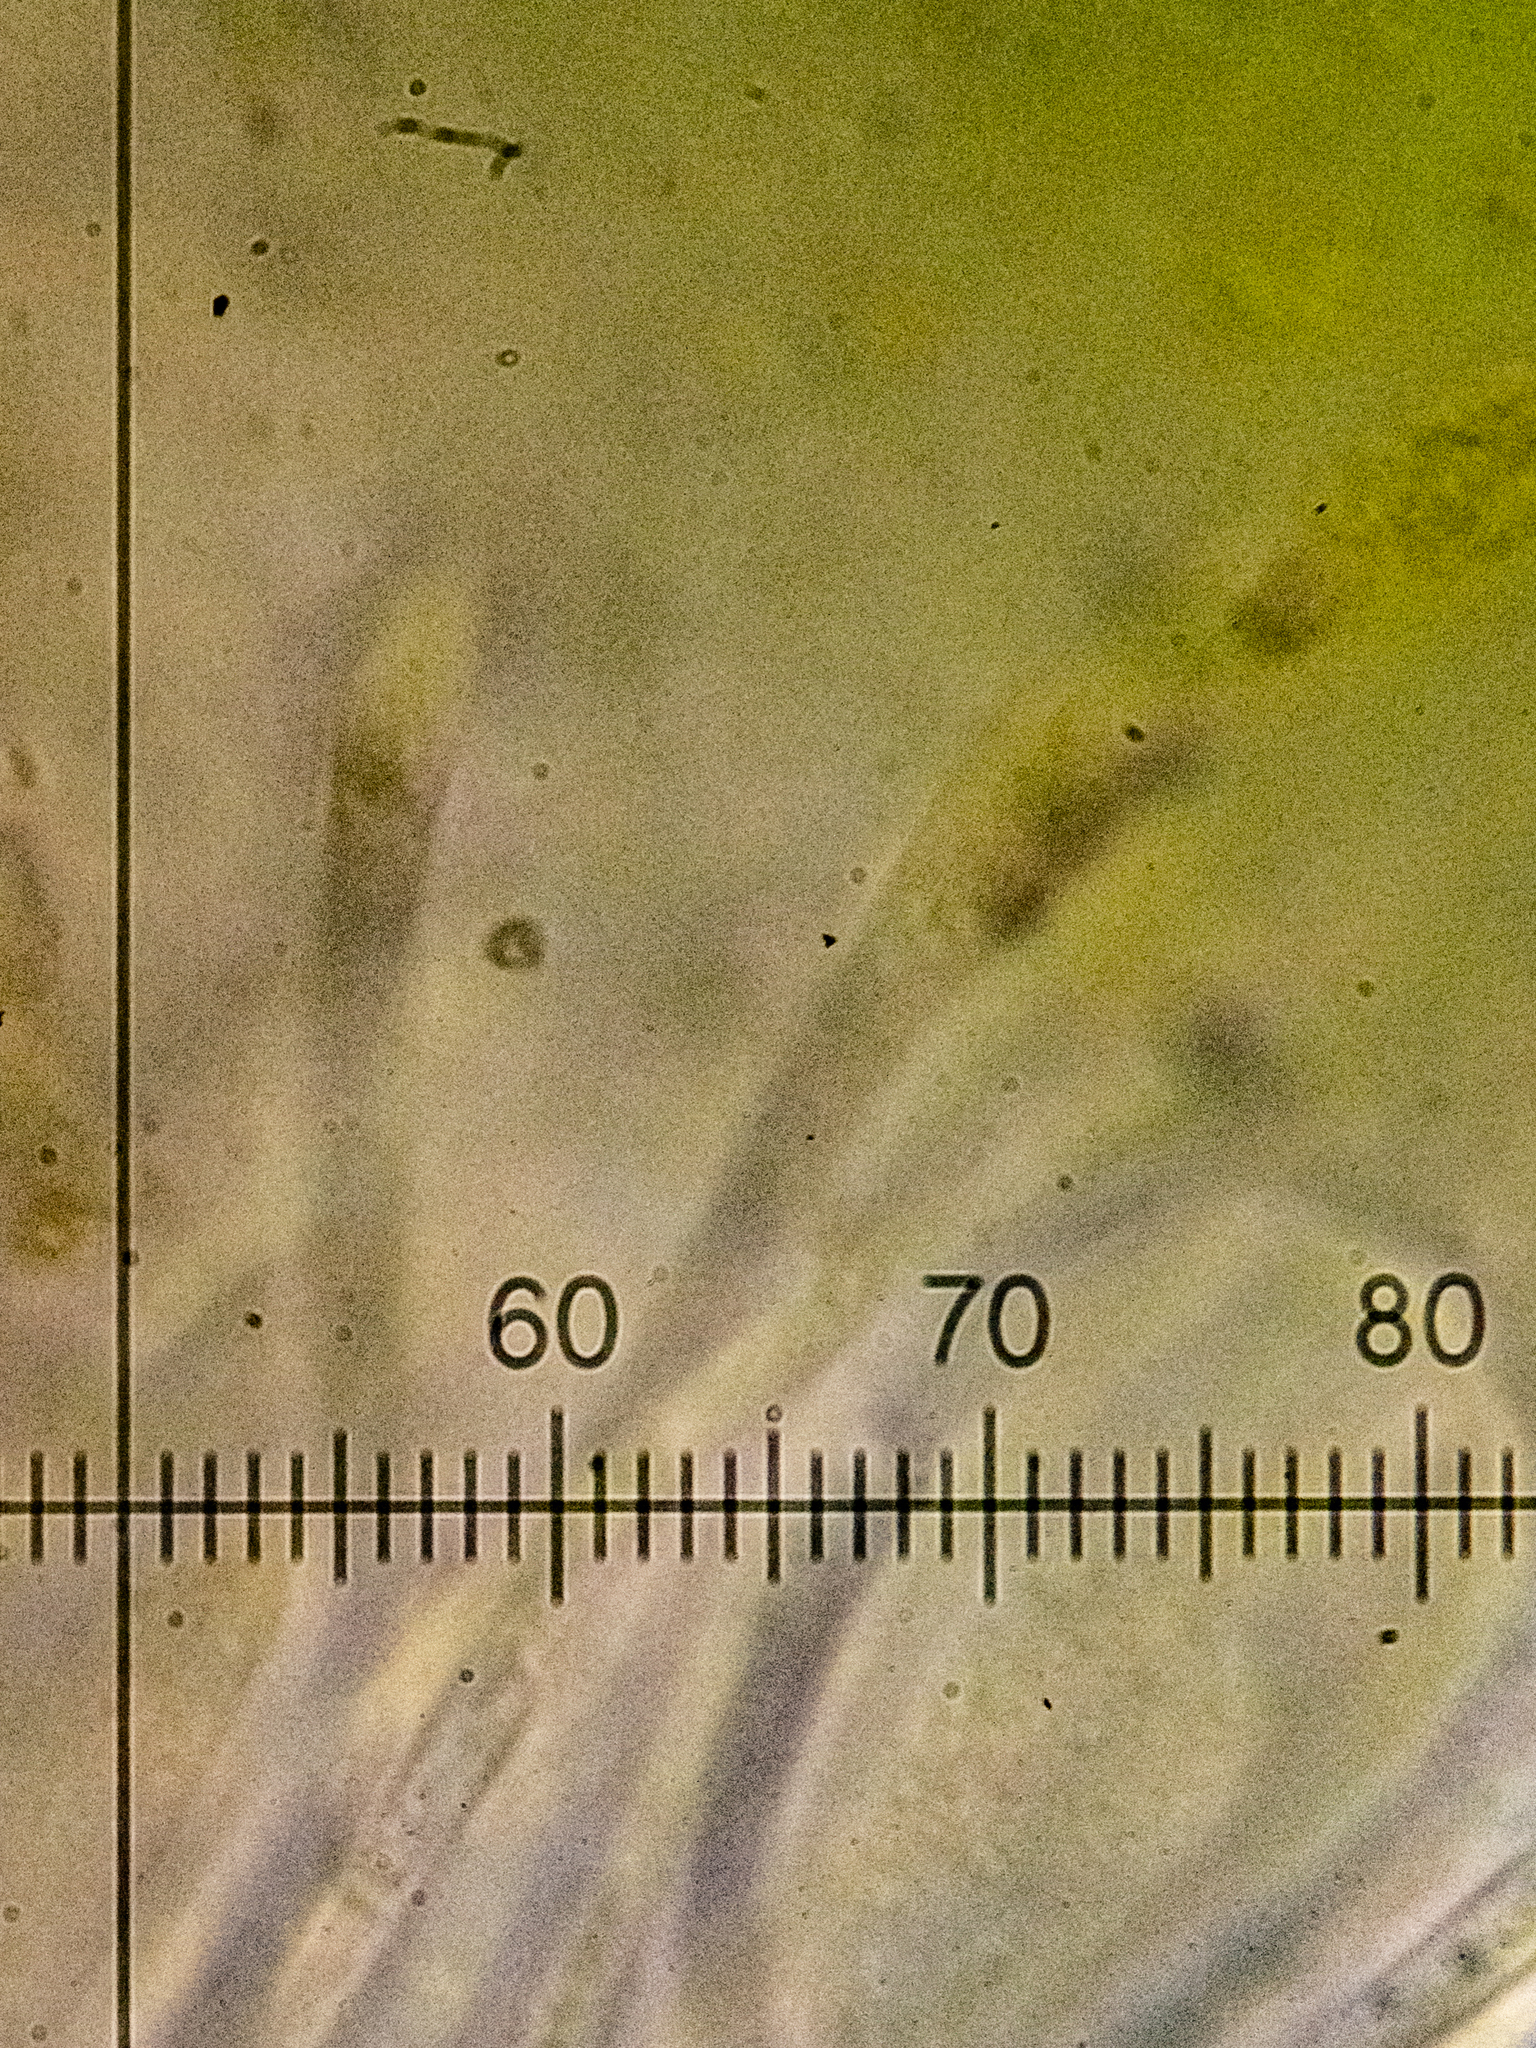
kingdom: Fungi
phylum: Ascomycota
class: Candelariomycetes
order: Candelariales
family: Candelariaceae
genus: Candelariella
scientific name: Candelariella vitellina
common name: Common goldspeck
